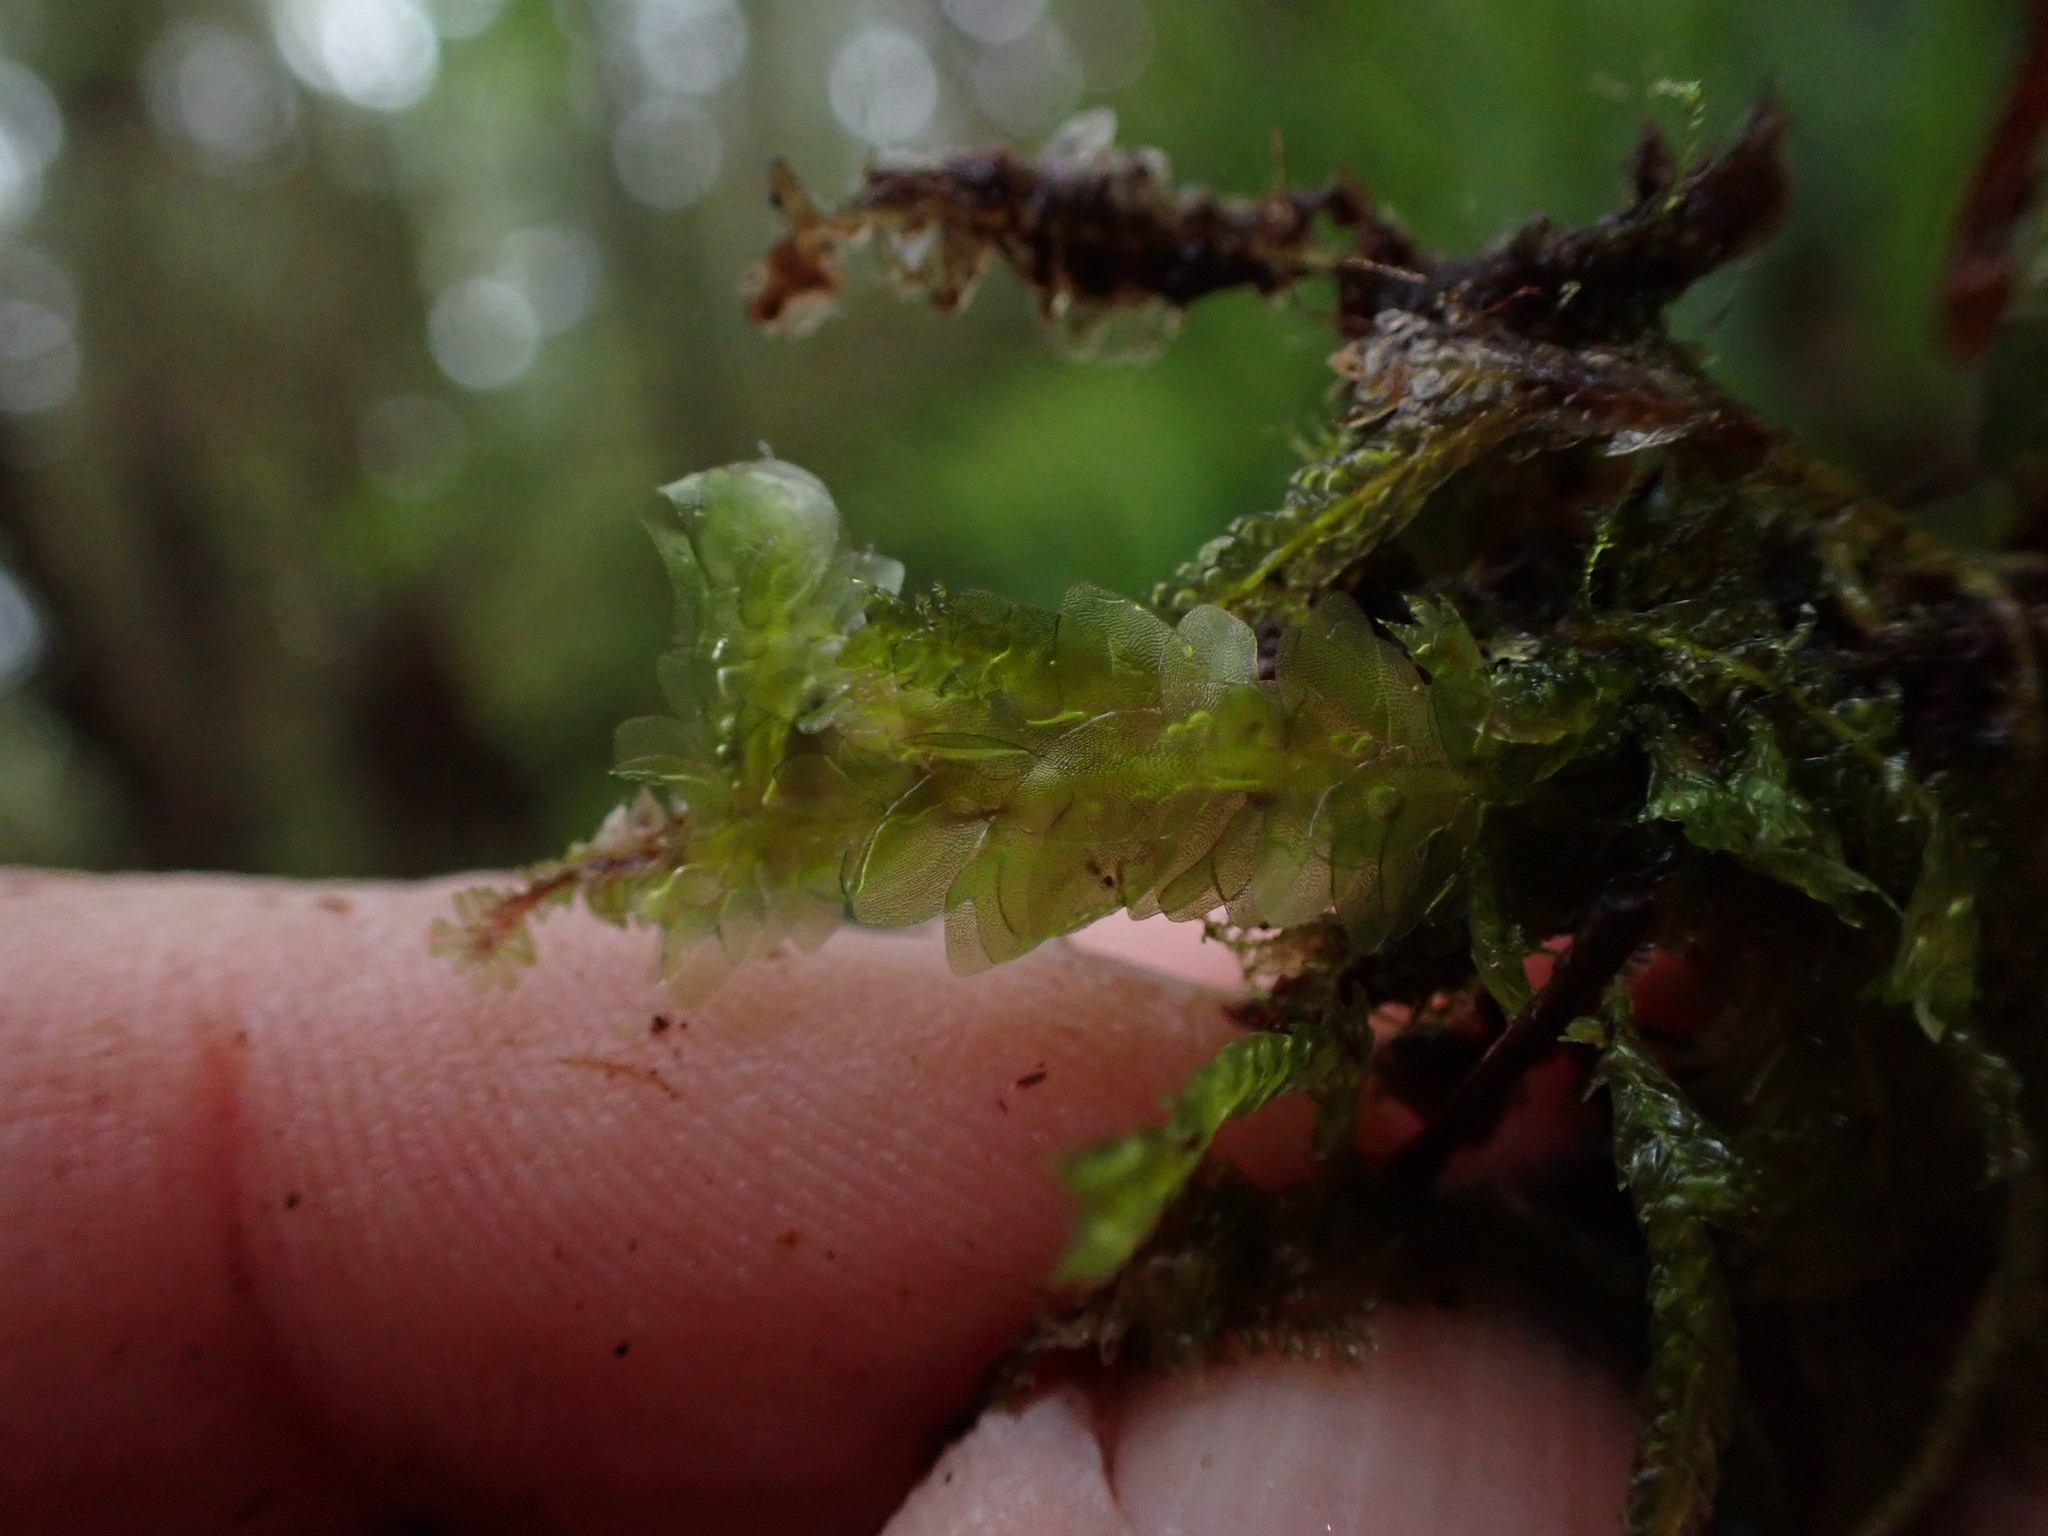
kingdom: Plantae
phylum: Bryophyta
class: Bryopsida
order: Hookeriales
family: Hookeriaceae
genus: Hookeria
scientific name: Hookeria lucens
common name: Shining hookeria
